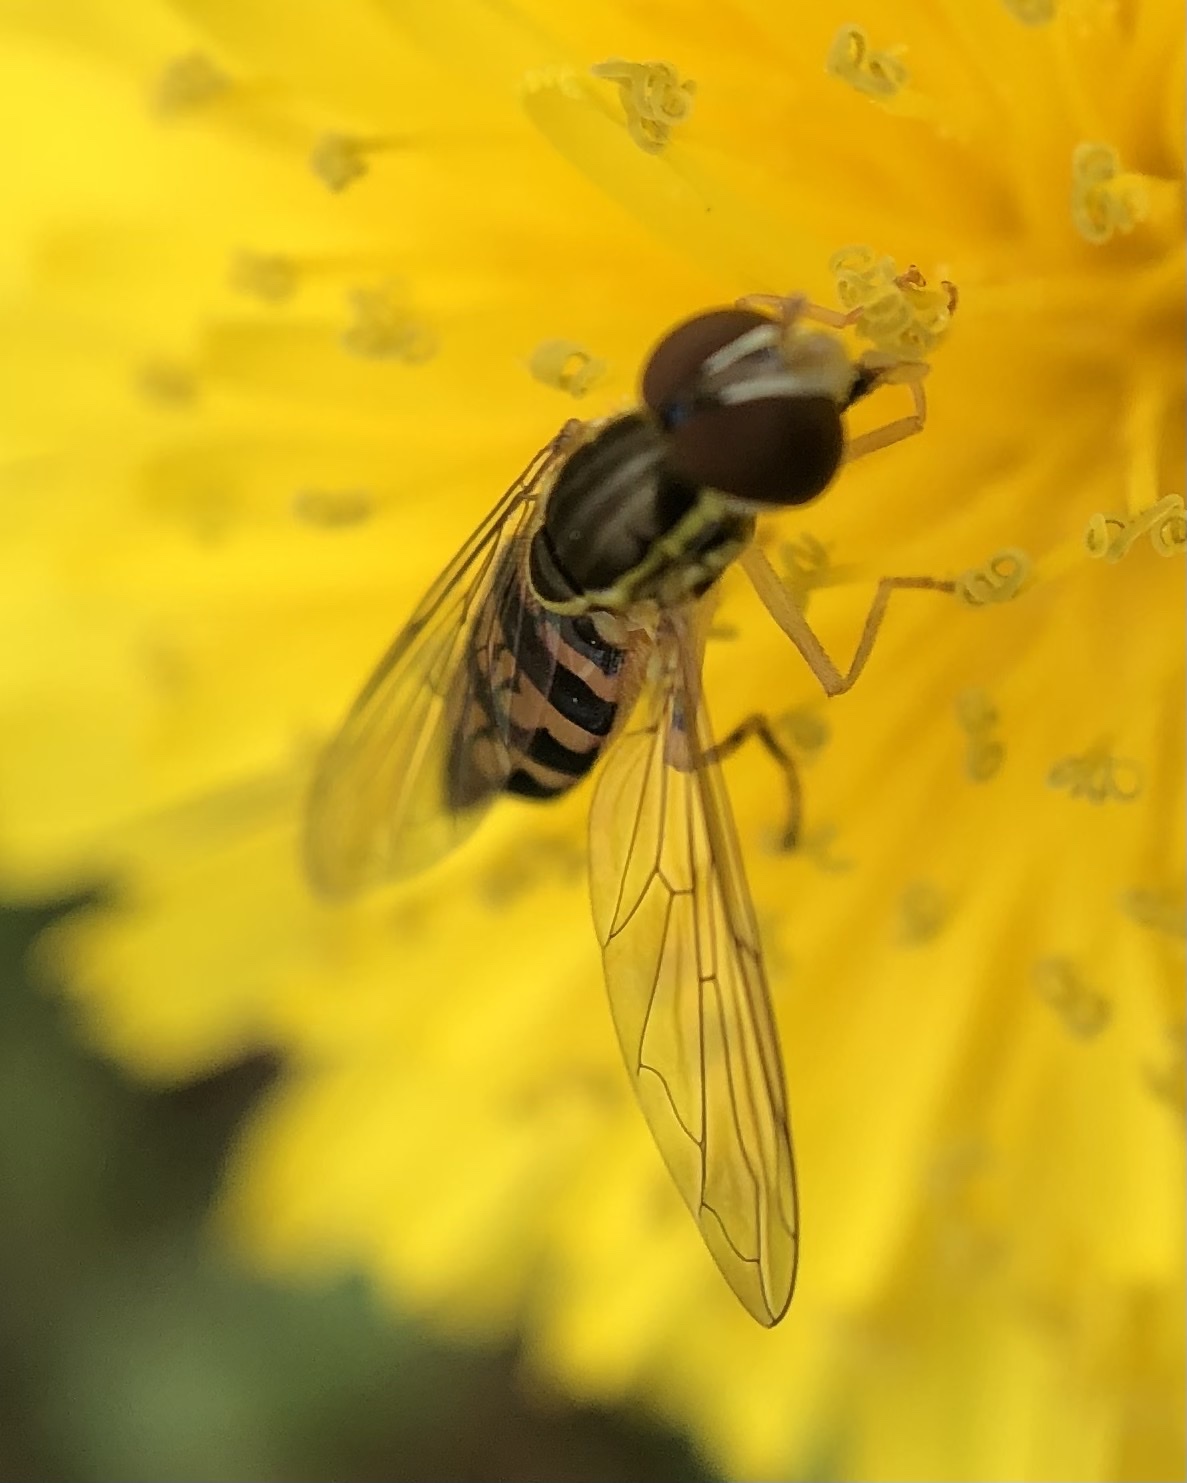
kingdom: Animalia
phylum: Arthropoda
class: Insecta
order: Diptera
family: Syrphidae
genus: Toxomerus
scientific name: Toxomerus geminatus
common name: Eastern calligrapher
